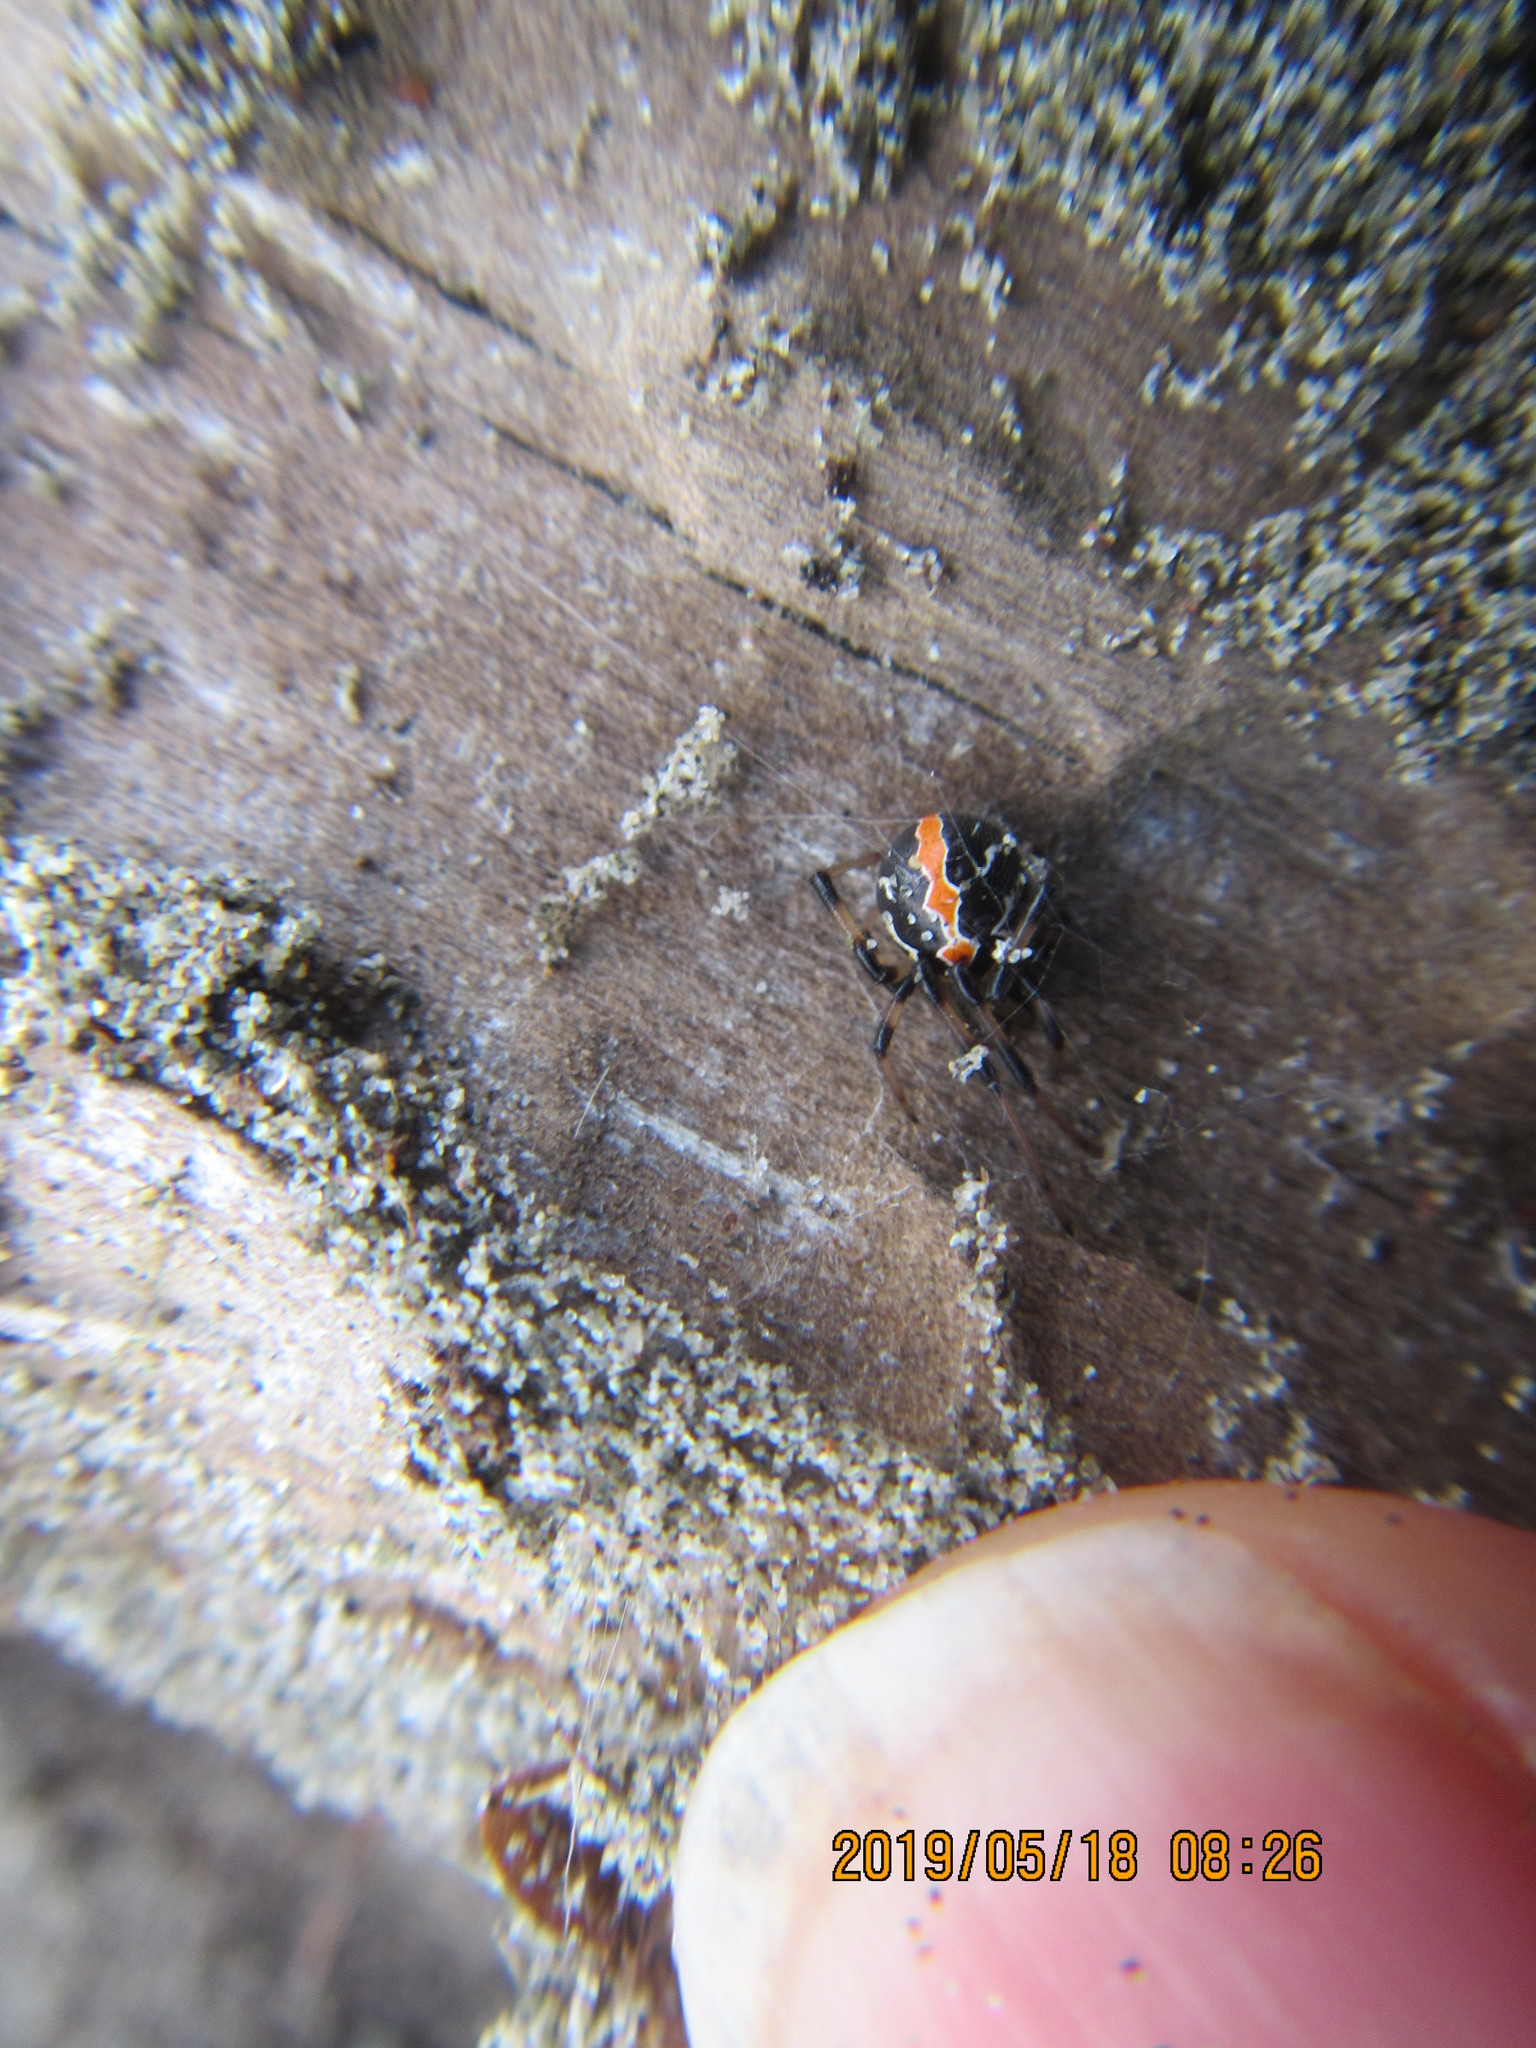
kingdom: Animalia
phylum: Arthropoda
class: Arachnida
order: Araneae
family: Theridiidae
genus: Latrodectus
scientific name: Latrodectus katipo
